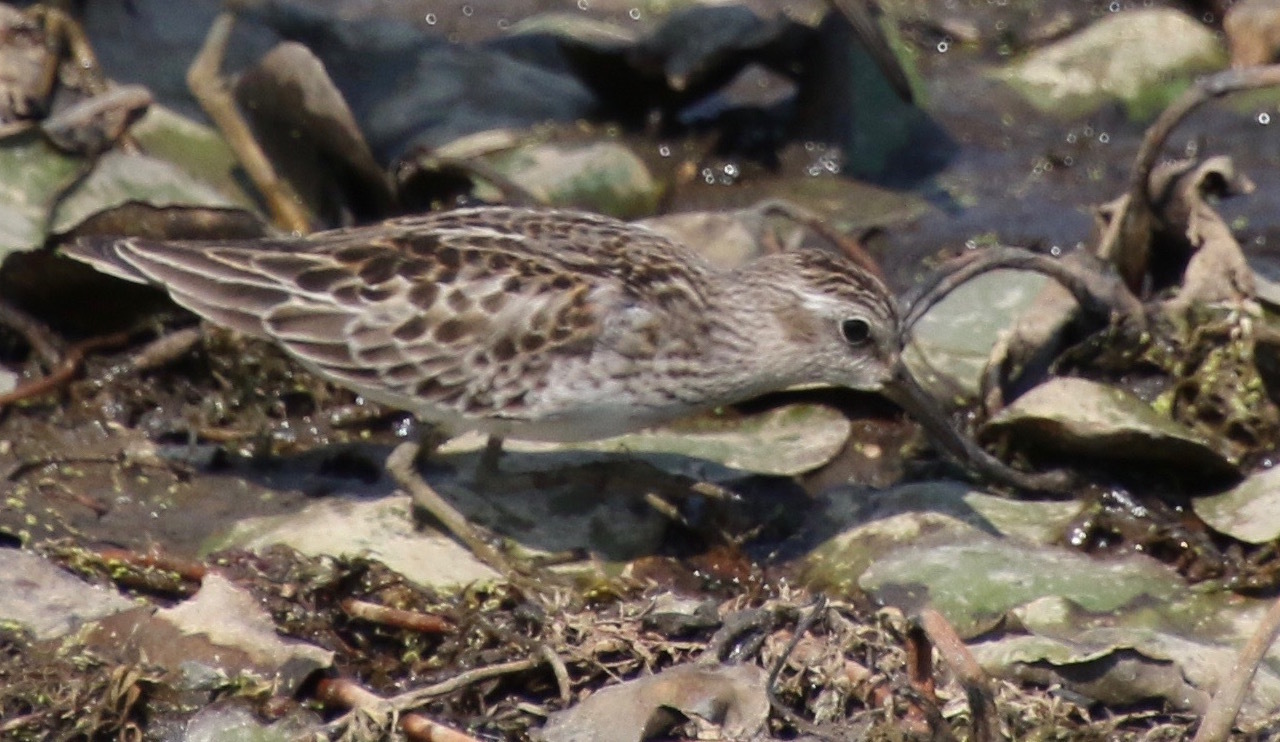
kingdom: Animalia
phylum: Chordata
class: Aves
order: Charadriiformes
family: Scolopacidae
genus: Calidris
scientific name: Calidris minutilla
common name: Least sandpiper
